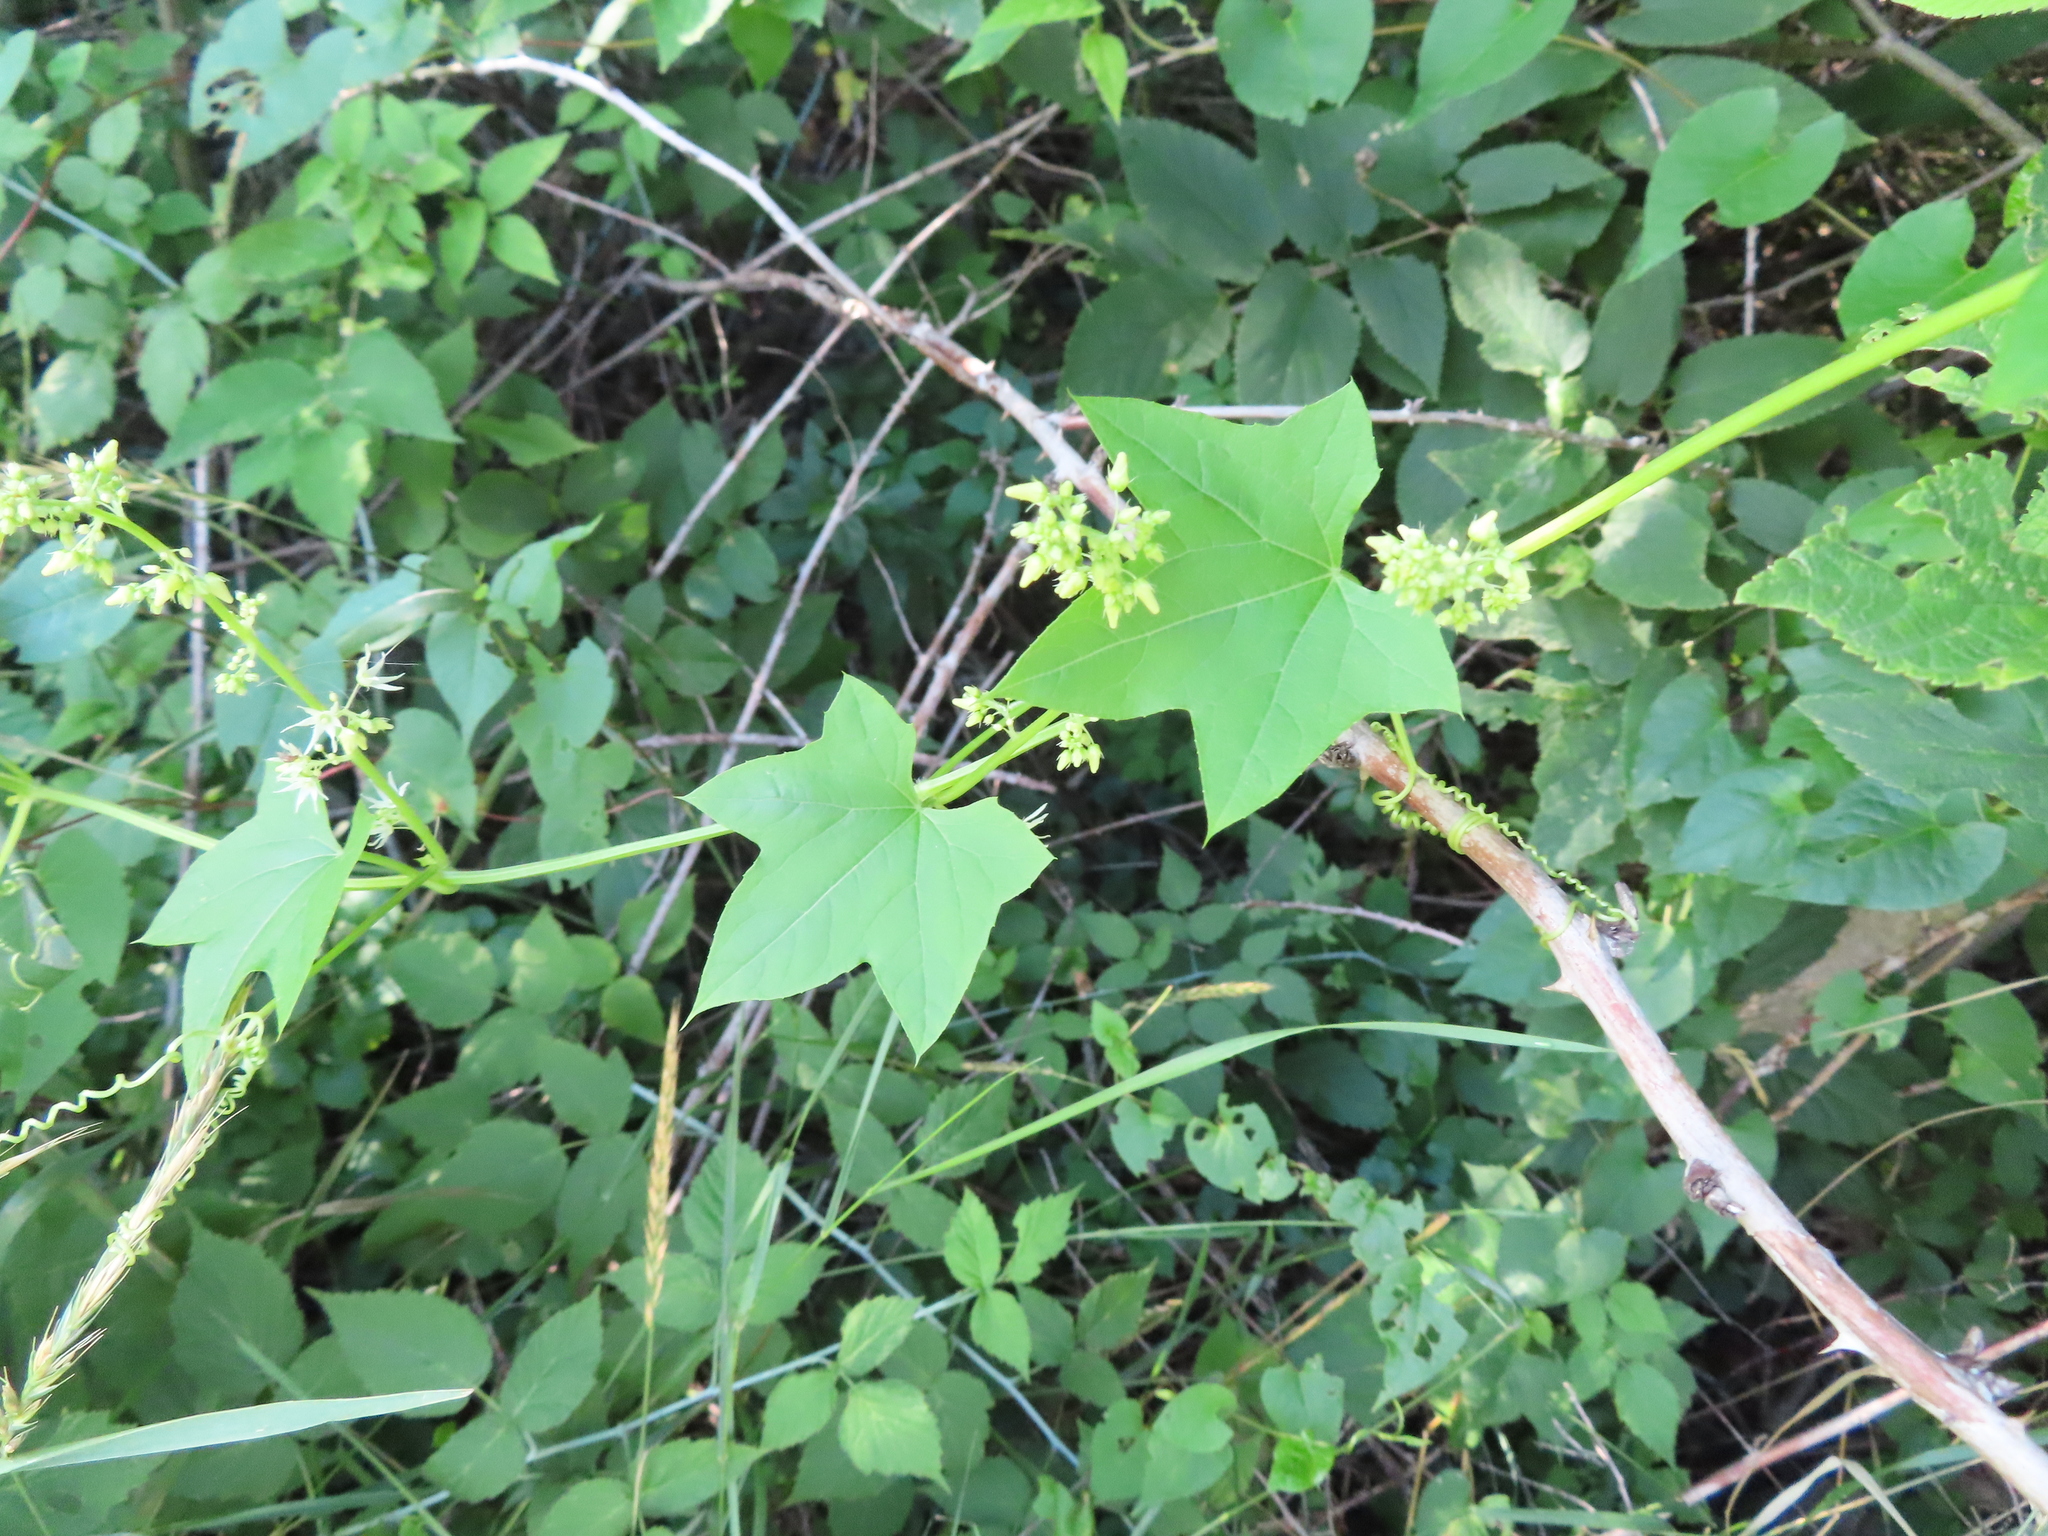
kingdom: Plantae
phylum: Tracheophyta
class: Magnoliopsida
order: Cucurbitales
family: Cucurbitaceae
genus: Echinocystis
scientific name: Echinocystis lobata
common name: Wild cucumber
